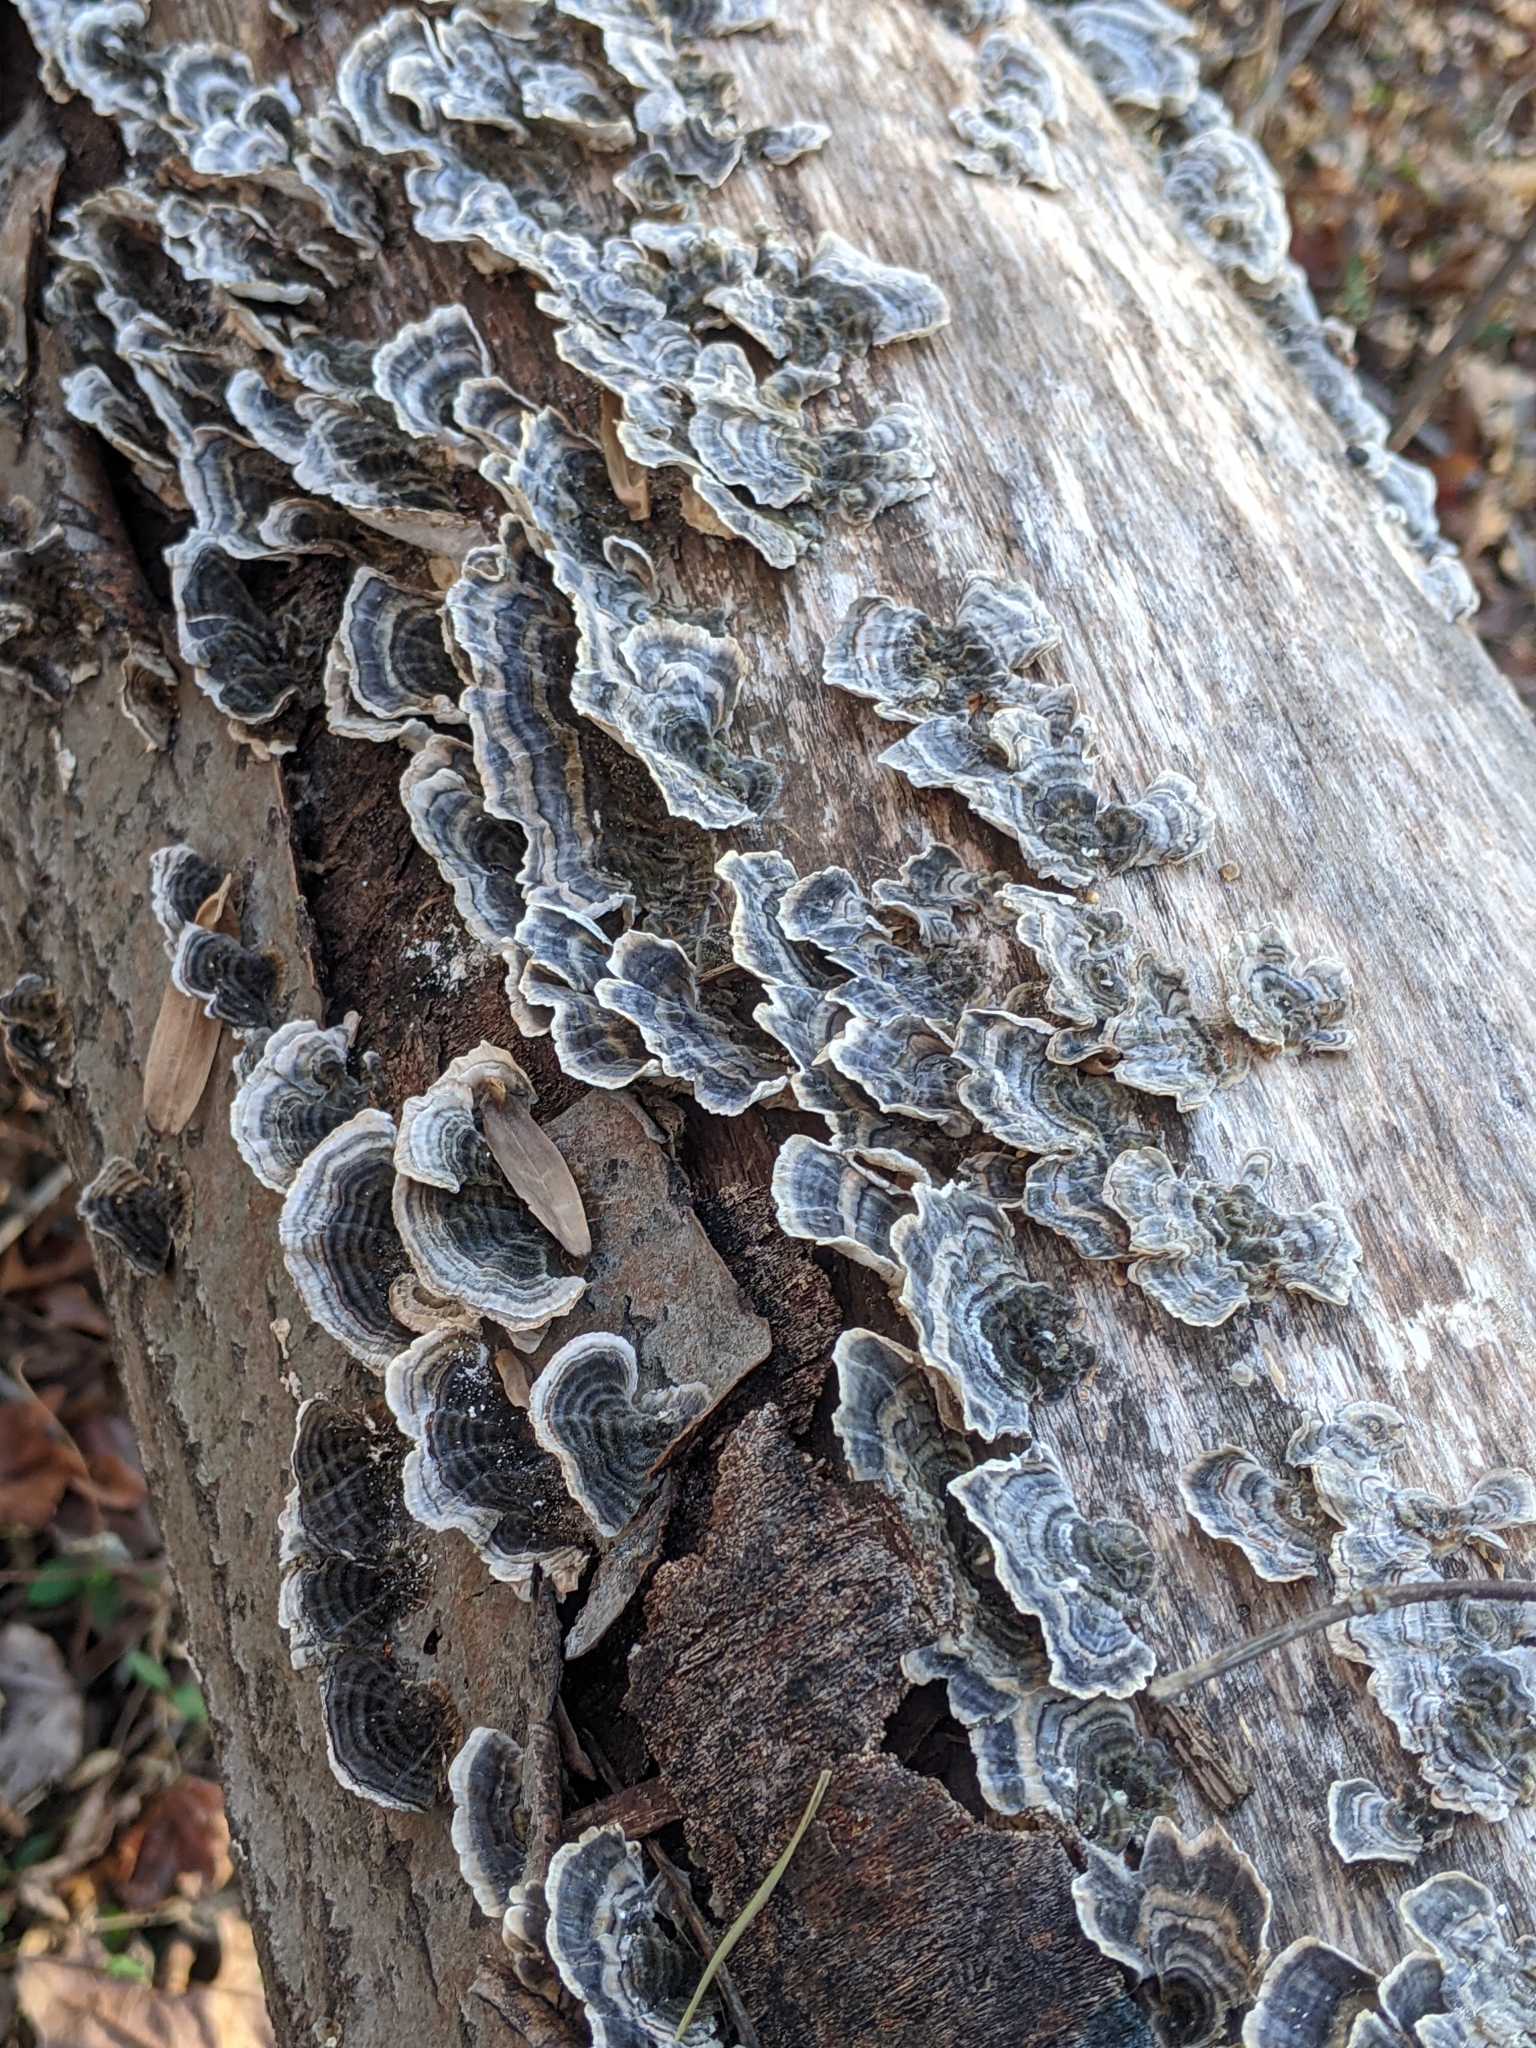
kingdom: Fungi
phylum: Basidiomycota
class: Agaricomycetes
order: Polyporales
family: Polyporaceae
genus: Trametes
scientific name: Trametes versicolor
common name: Turkeytail
